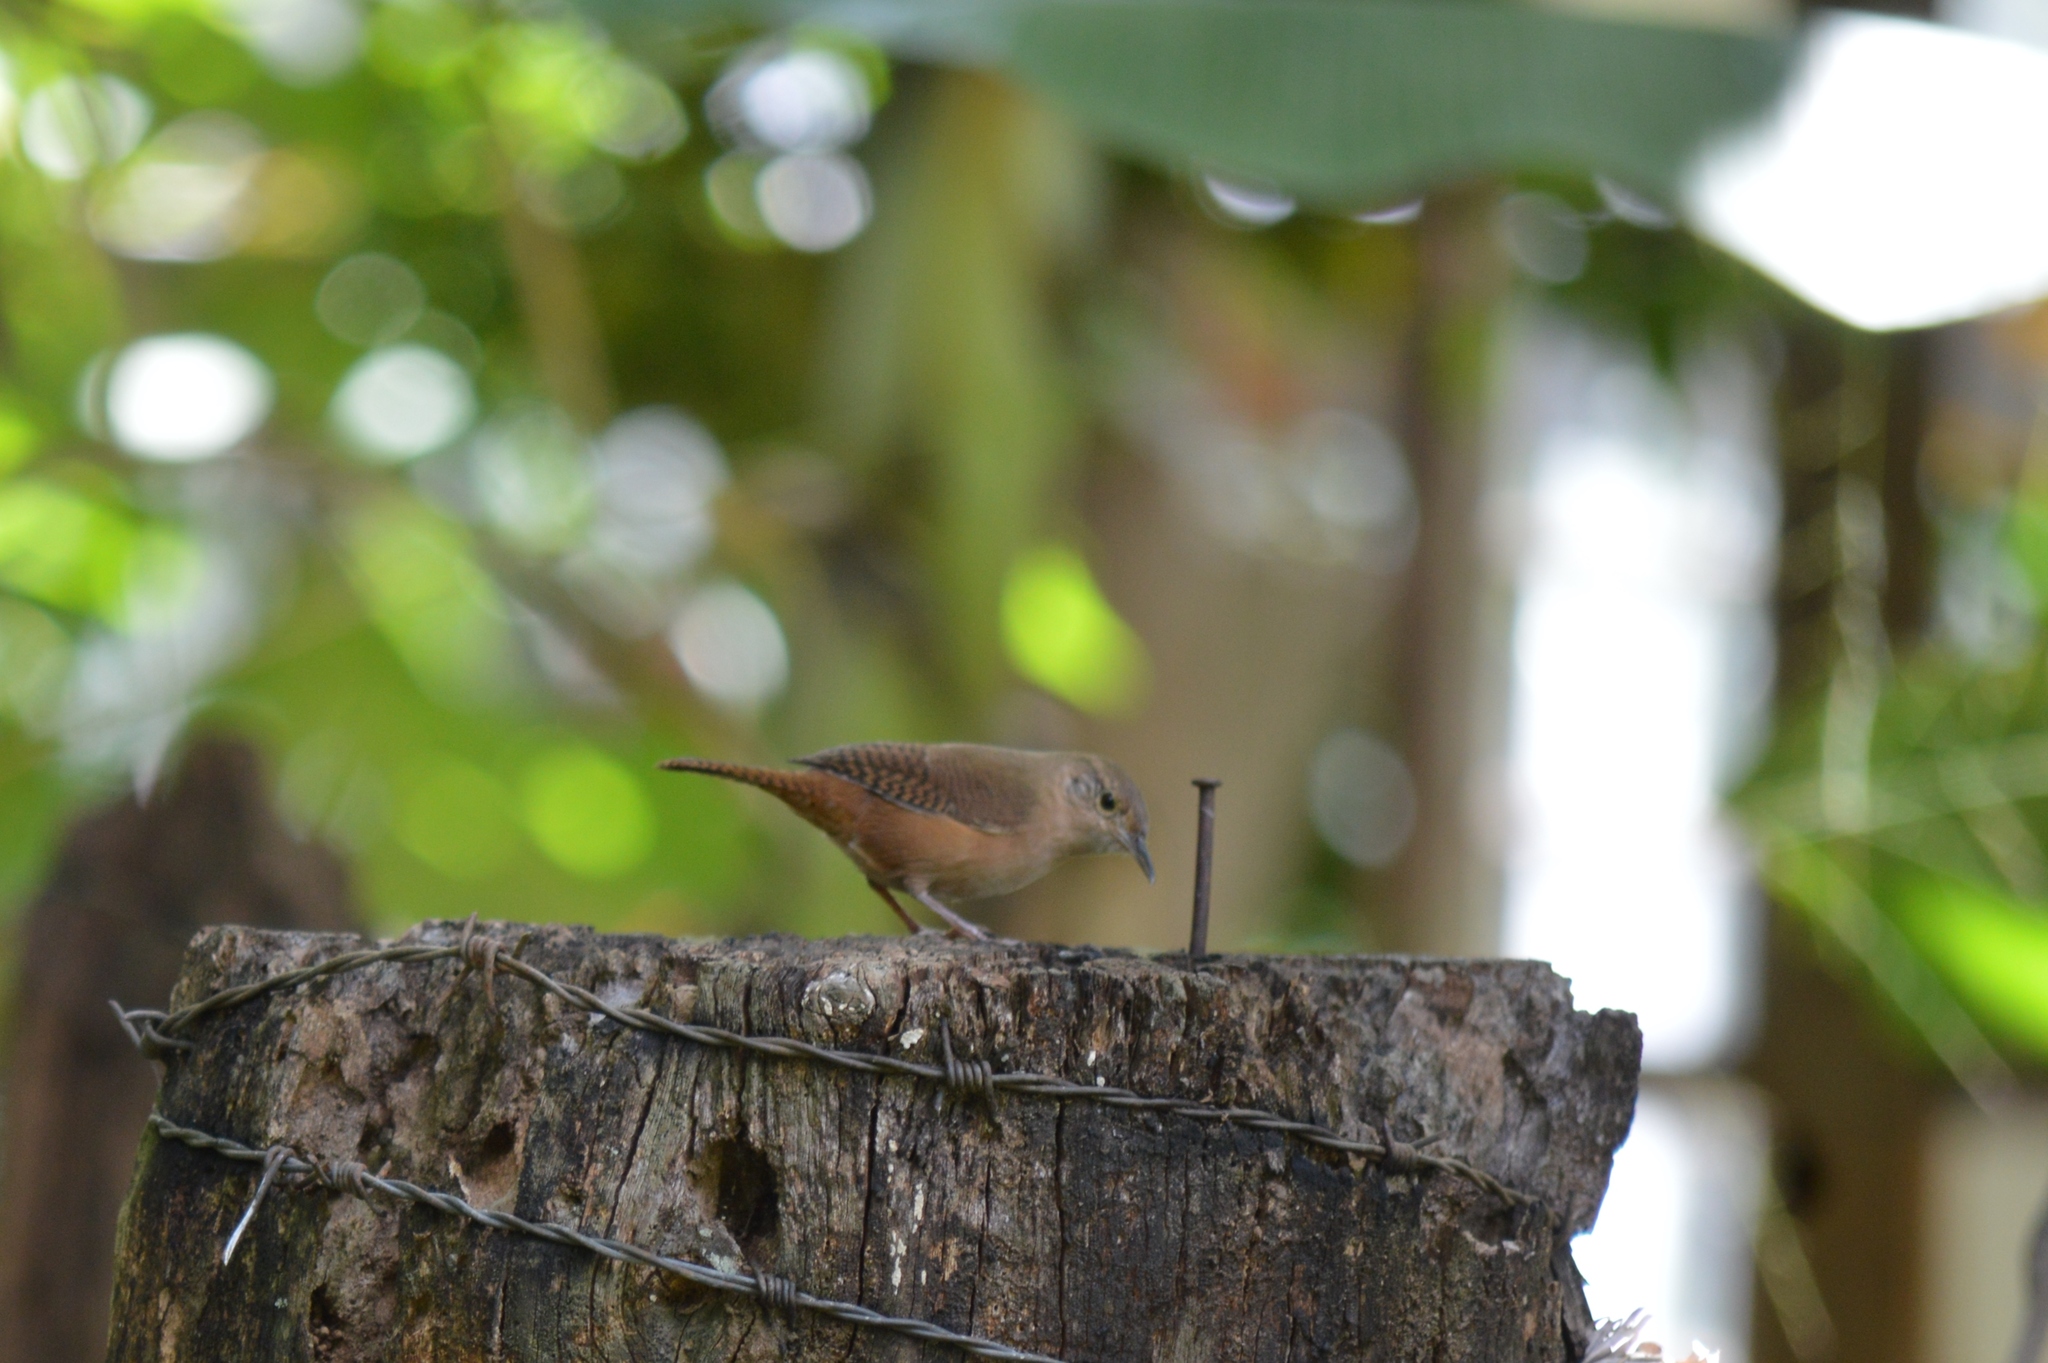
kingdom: Animalia
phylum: Chordata
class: Aves
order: Passeriformes
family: Troglodytidae
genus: Troglodytes
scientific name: Troglodytes aedon
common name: House wren
